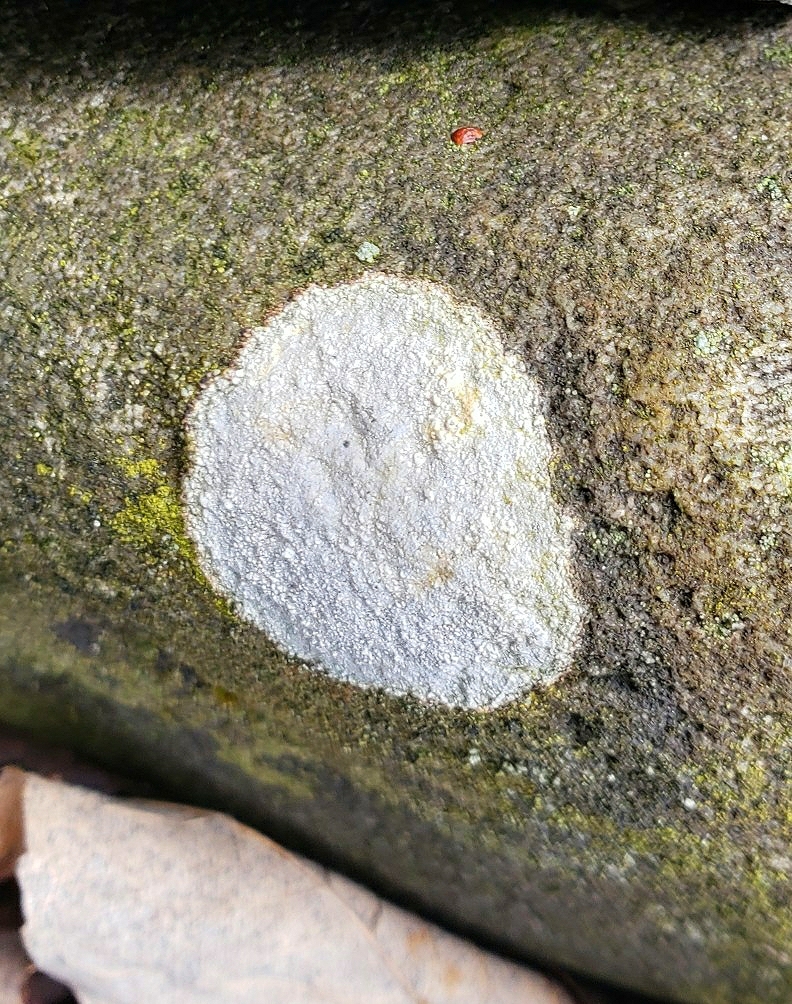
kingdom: Fungi
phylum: Ascomycota
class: Lecanoromycetes
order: Ostropales
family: Phlyctidaceae
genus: Phlyctis
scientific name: Phlyctis petraea
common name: Eggshell rock blaze
